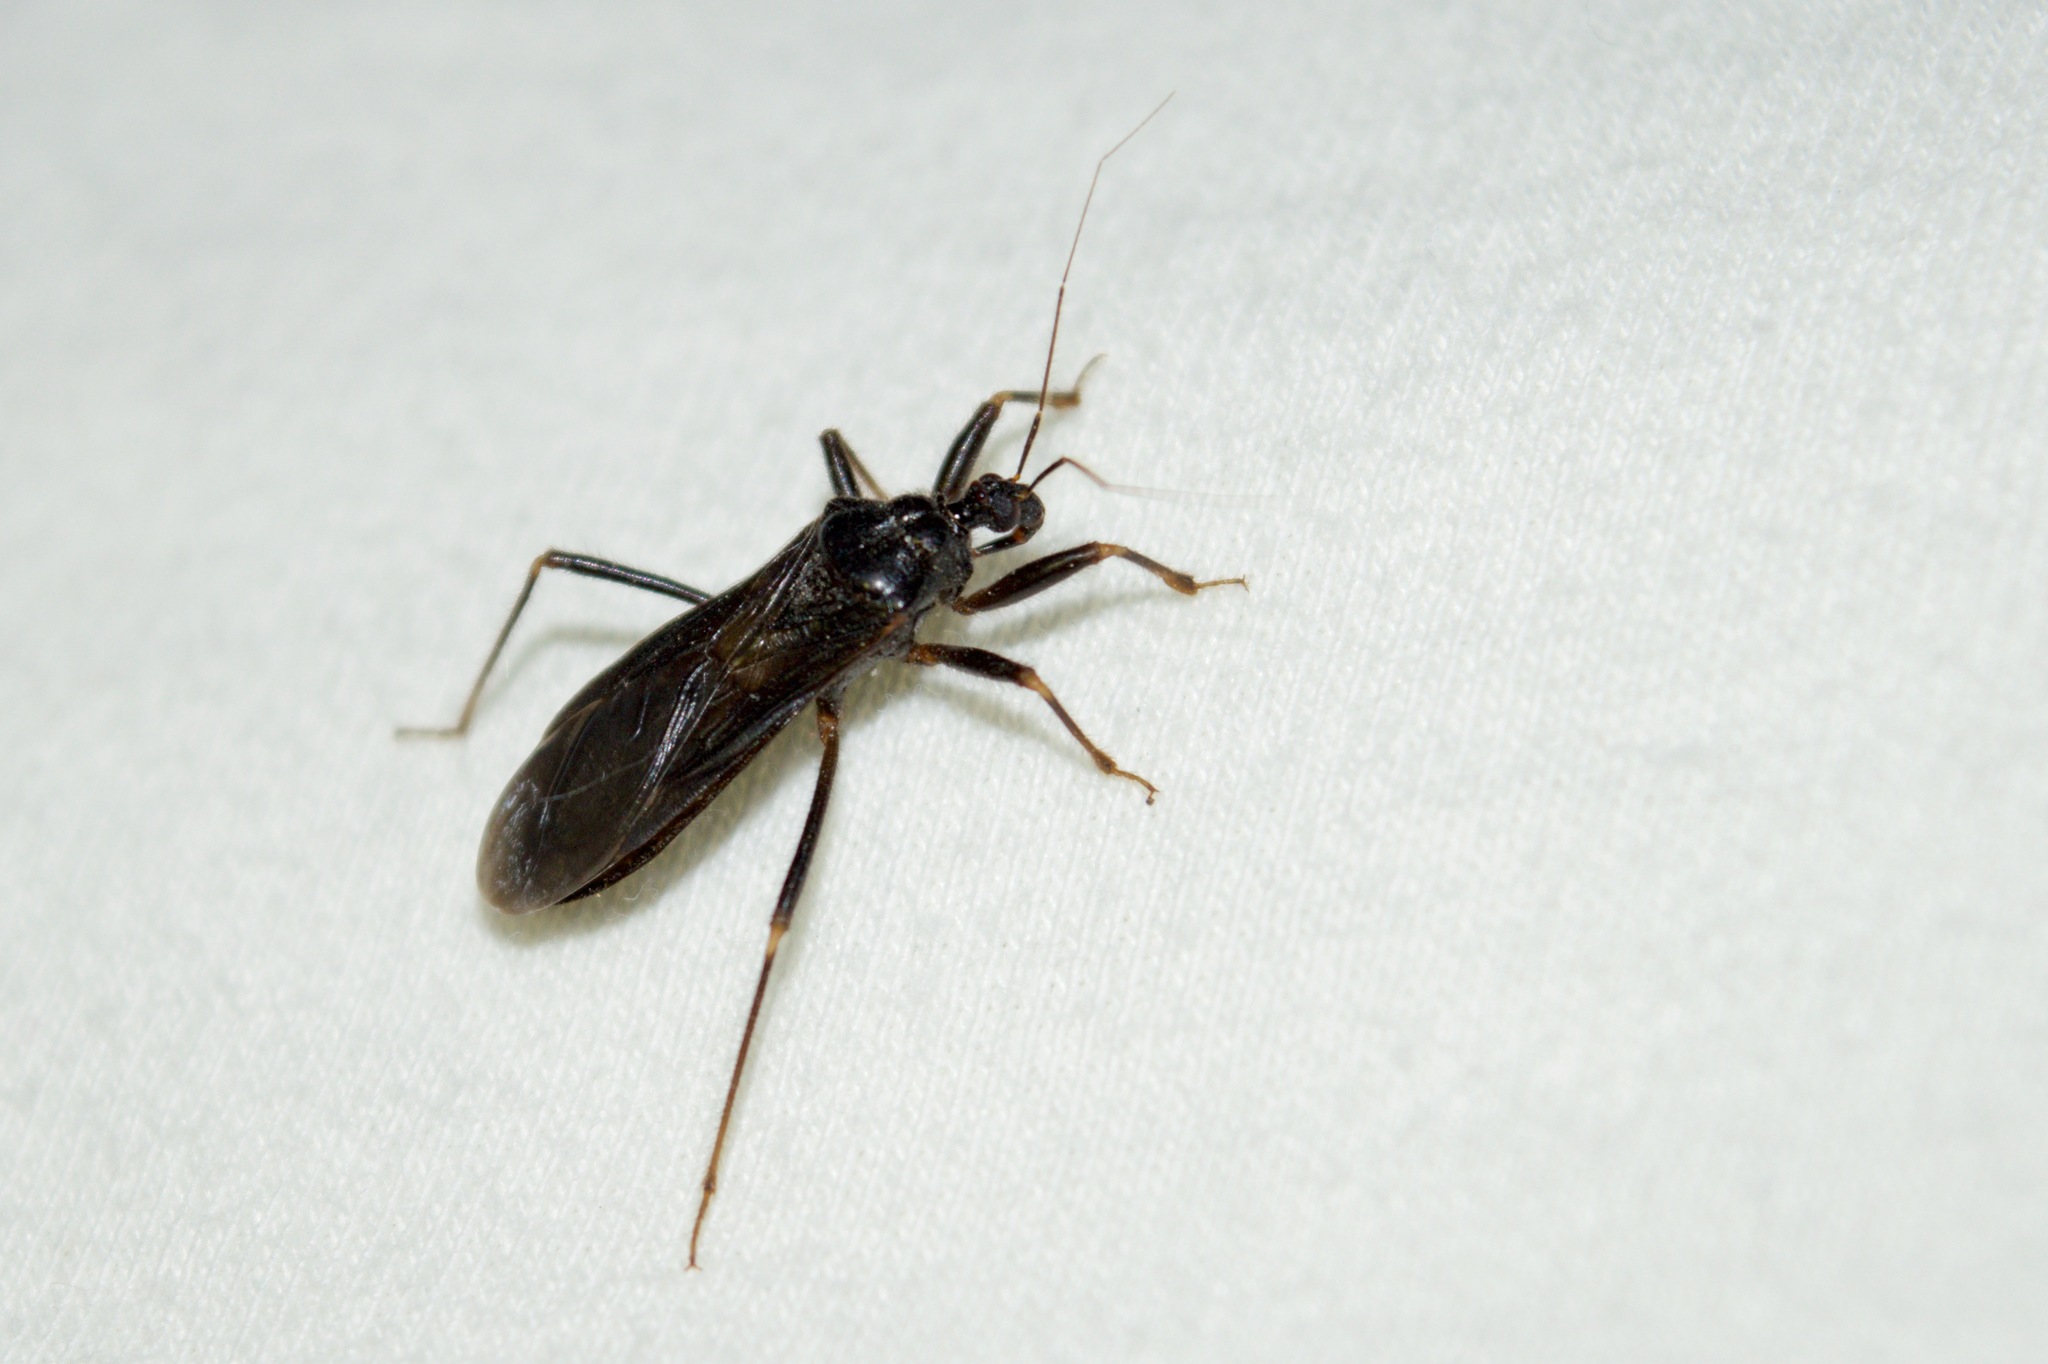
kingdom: Animalia
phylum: Arthropoda
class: Insecta
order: Hemiptera
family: Reduviidae
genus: Reduvius
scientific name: Reduvius personatus
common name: Masked hunter
